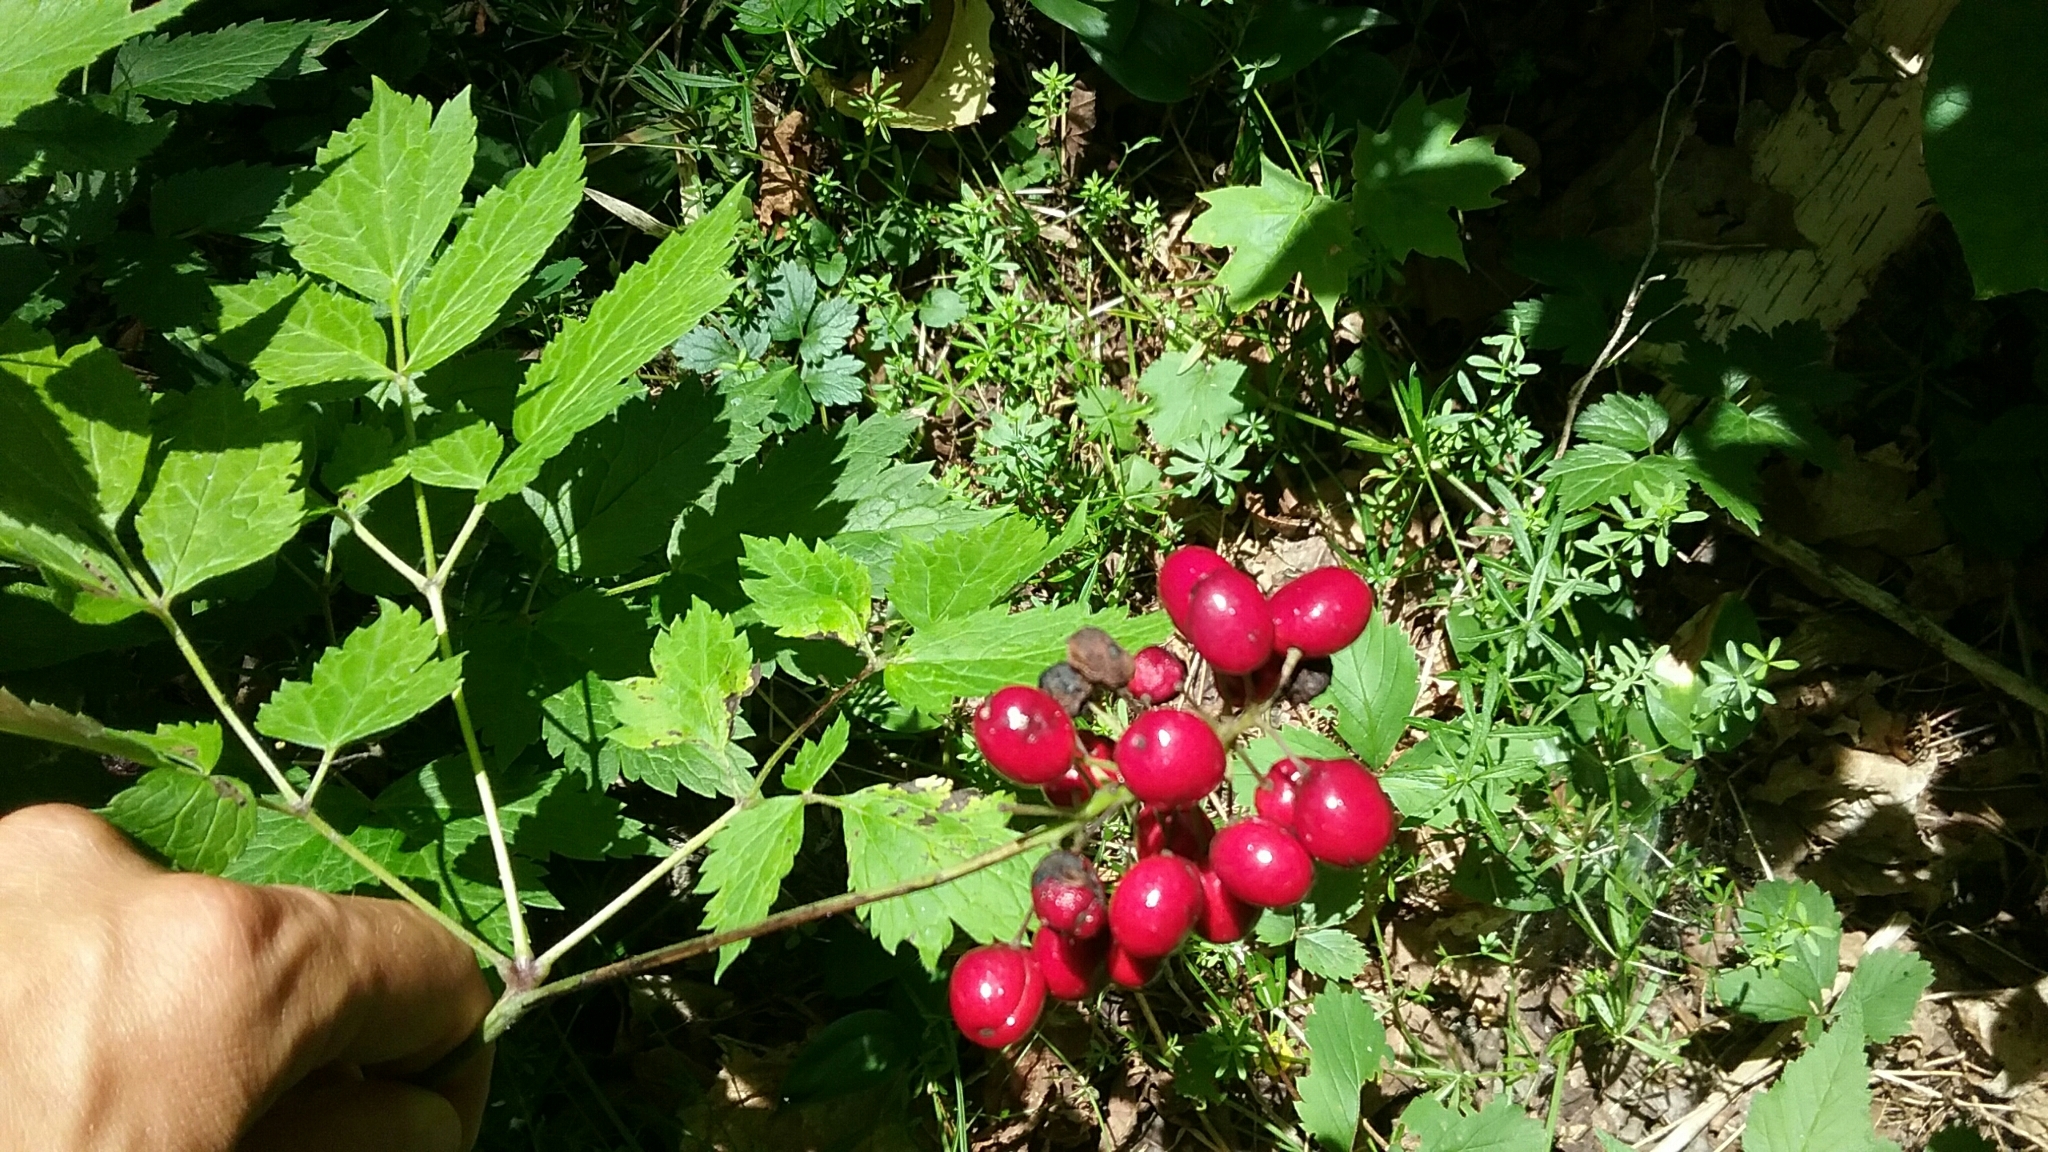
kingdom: Plantae
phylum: Tracheophyta
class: Magnoliopsida
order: Ranunculales
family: Ranunculaceae
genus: Actaea
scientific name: Actaea rubra
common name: Red baneberry
